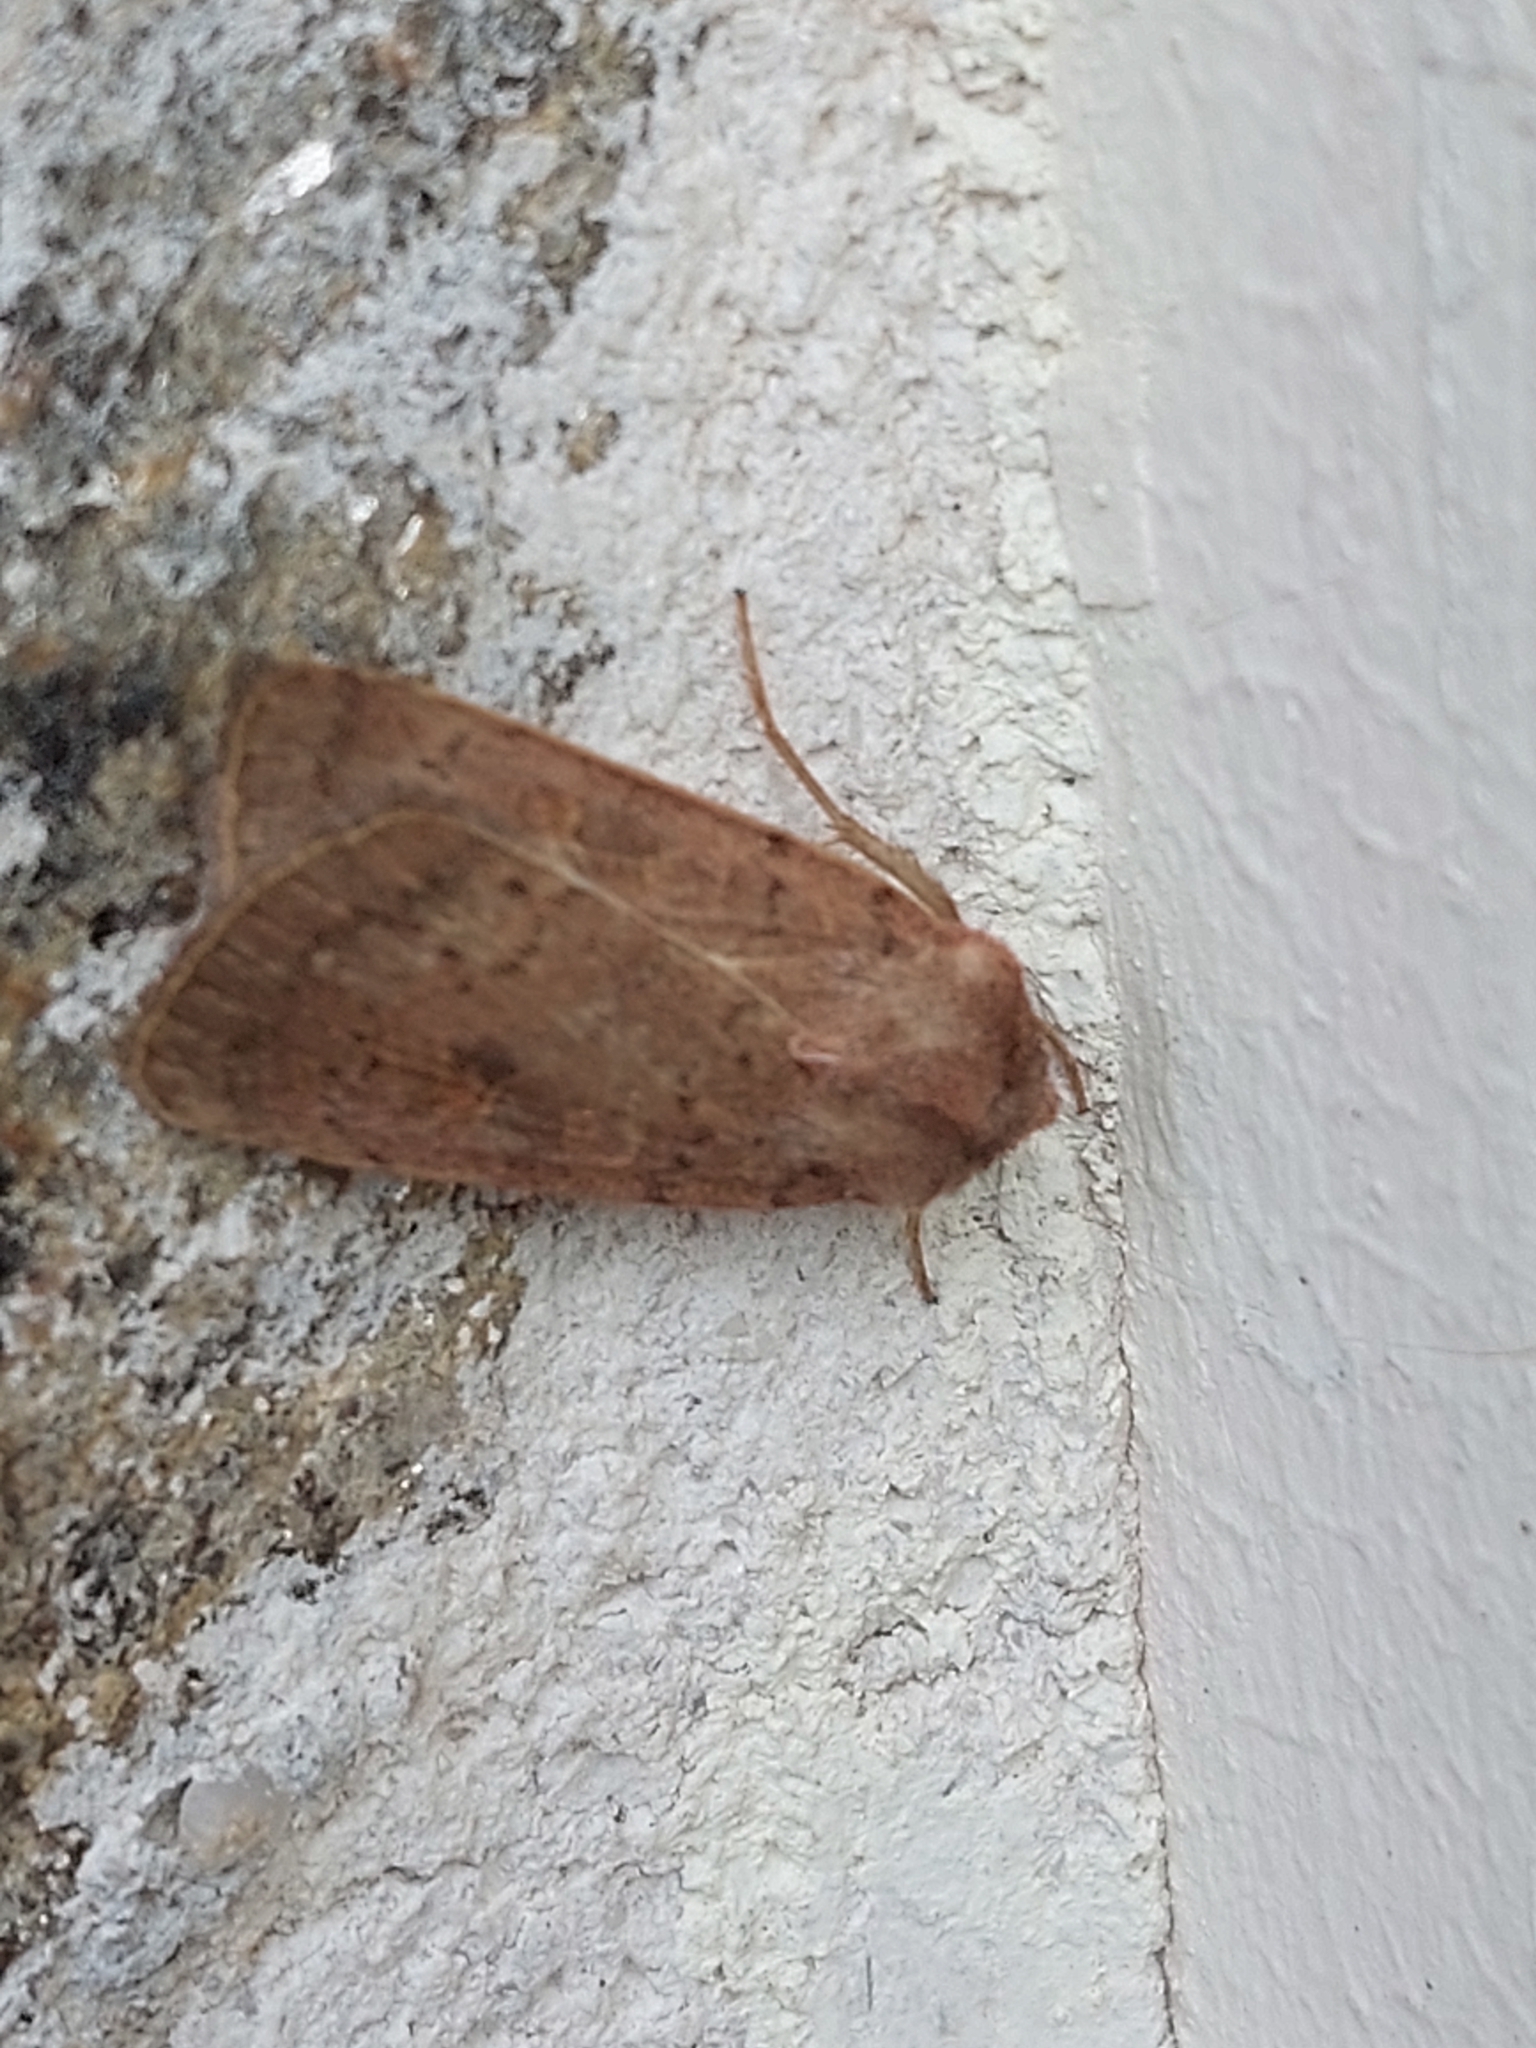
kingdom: Animalia
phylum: Arthropoda
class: Insecta
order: Lepidoptera
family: Noctuidae
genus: Xestia
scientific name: Xestia xanthographa
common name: Square-spot rustic
